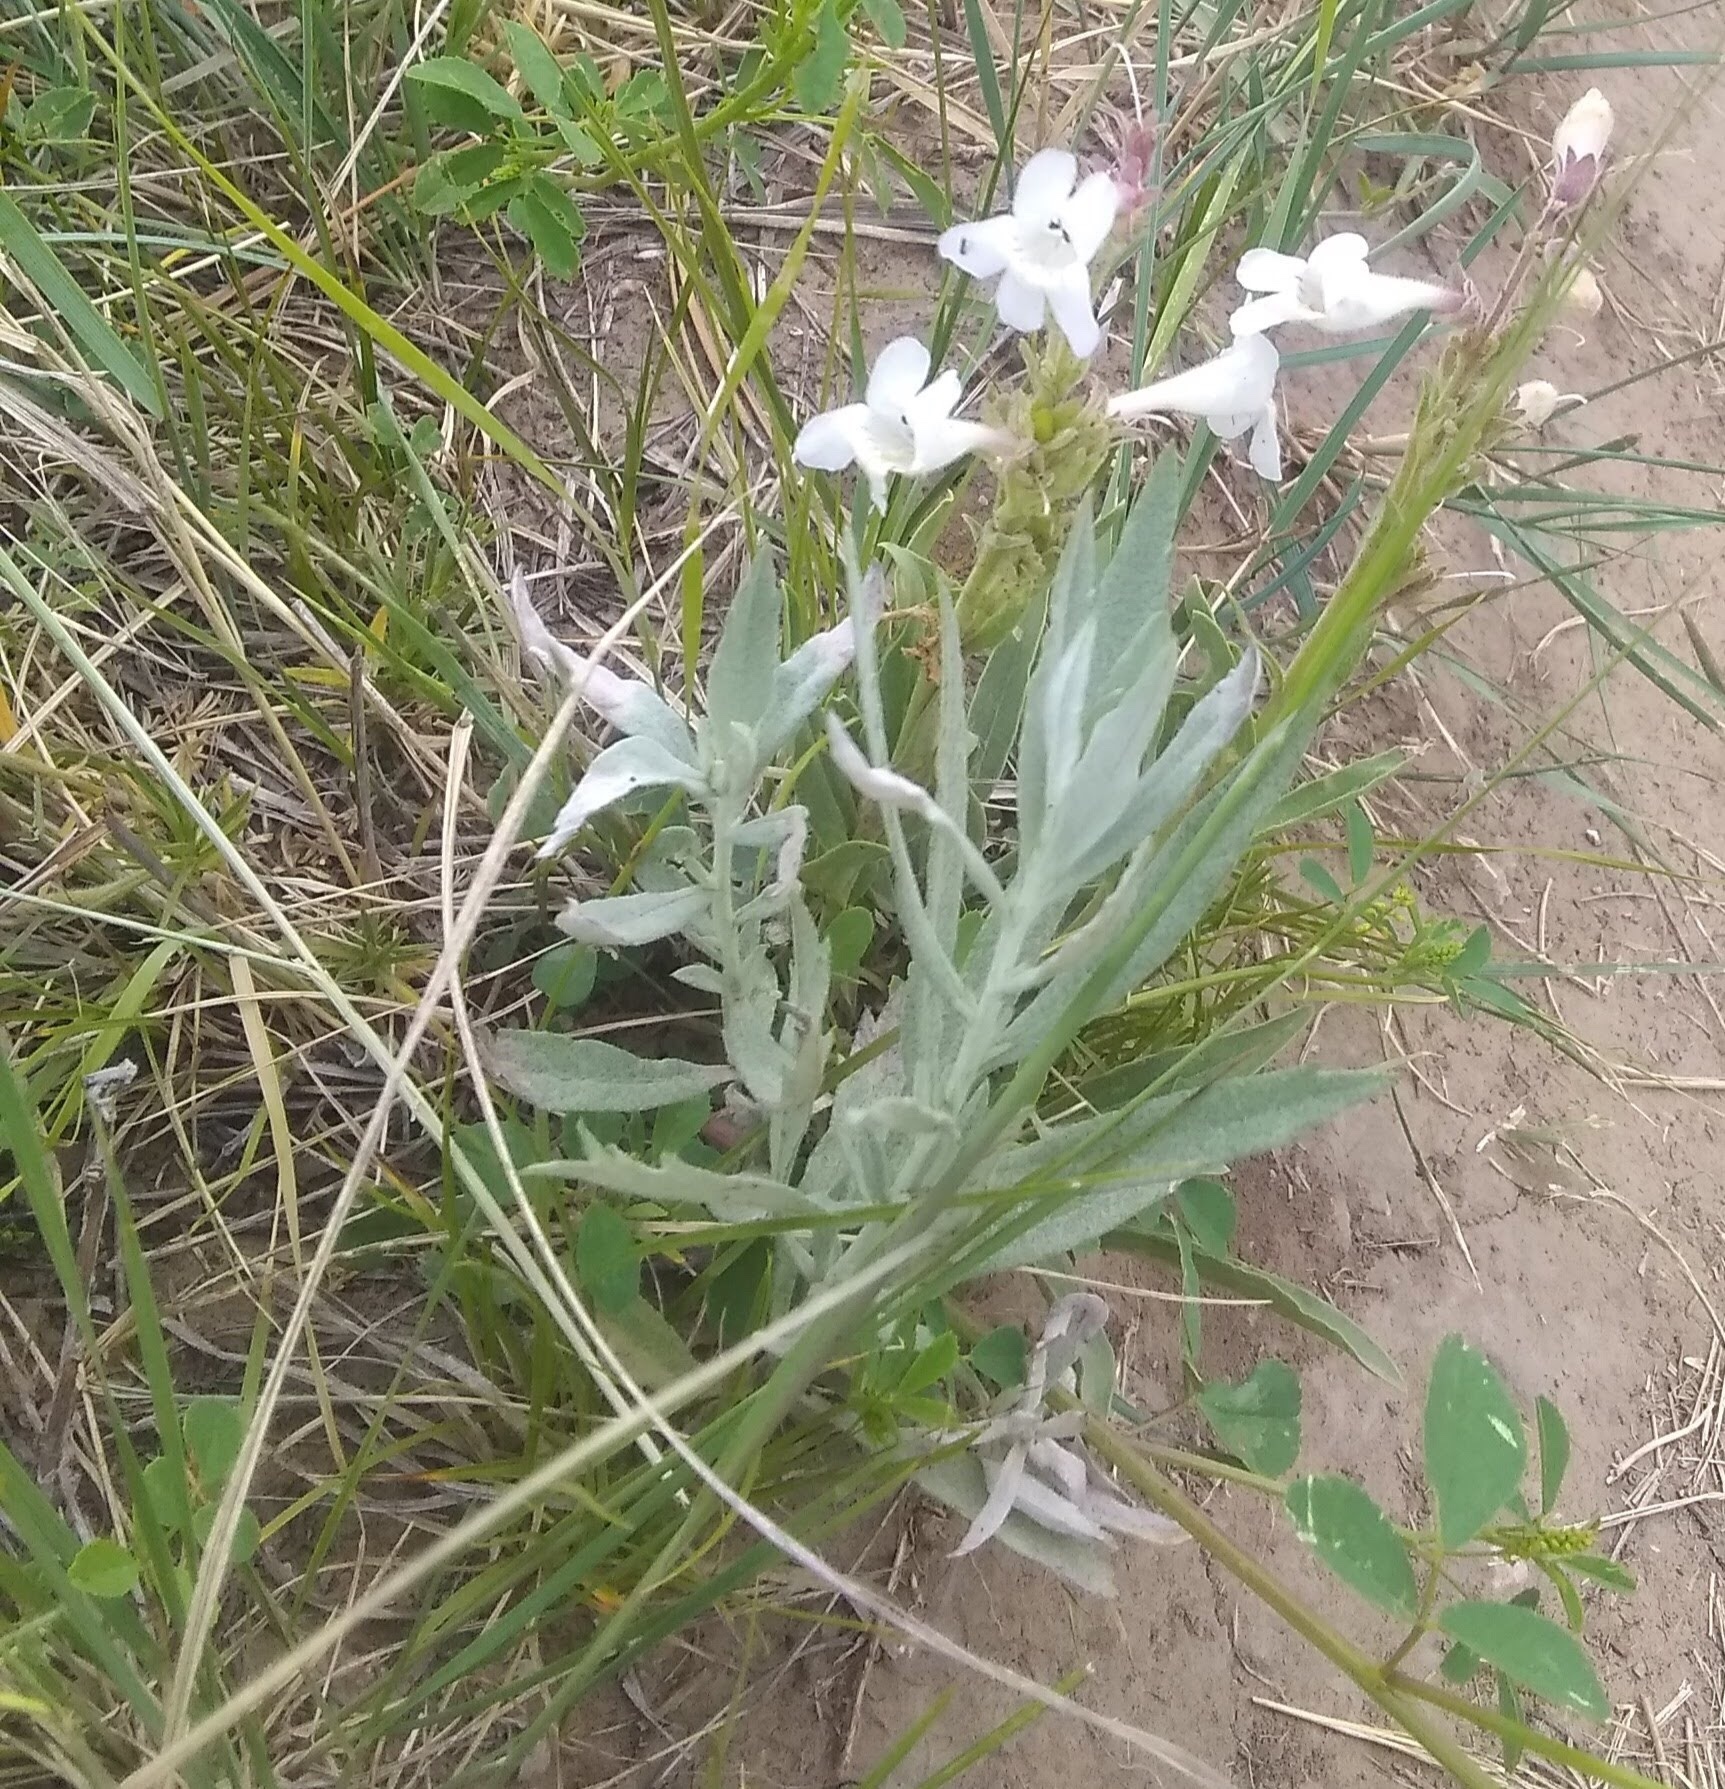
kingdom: Plantae
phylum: Tracheophyta
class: Magnoliopsida
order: Lamiales
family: Plantaginaceae
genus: Penstemon
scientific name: Penstemon albidus
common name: White beardtongue
